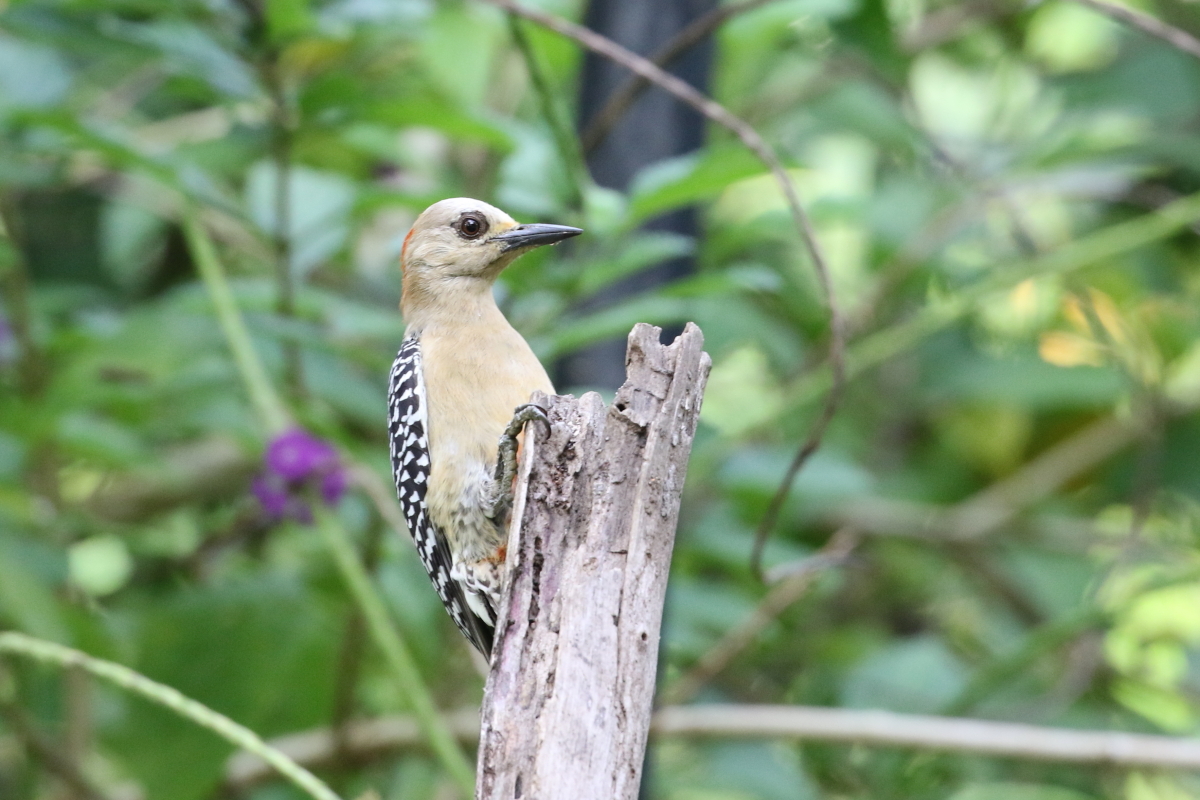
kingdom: Animalia
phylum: Chordata
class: Aves
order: Piciformes
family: Picidae
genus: Melanerpes
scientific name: Melanerpes rubricapillus
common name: Red-crowned woodpecker
